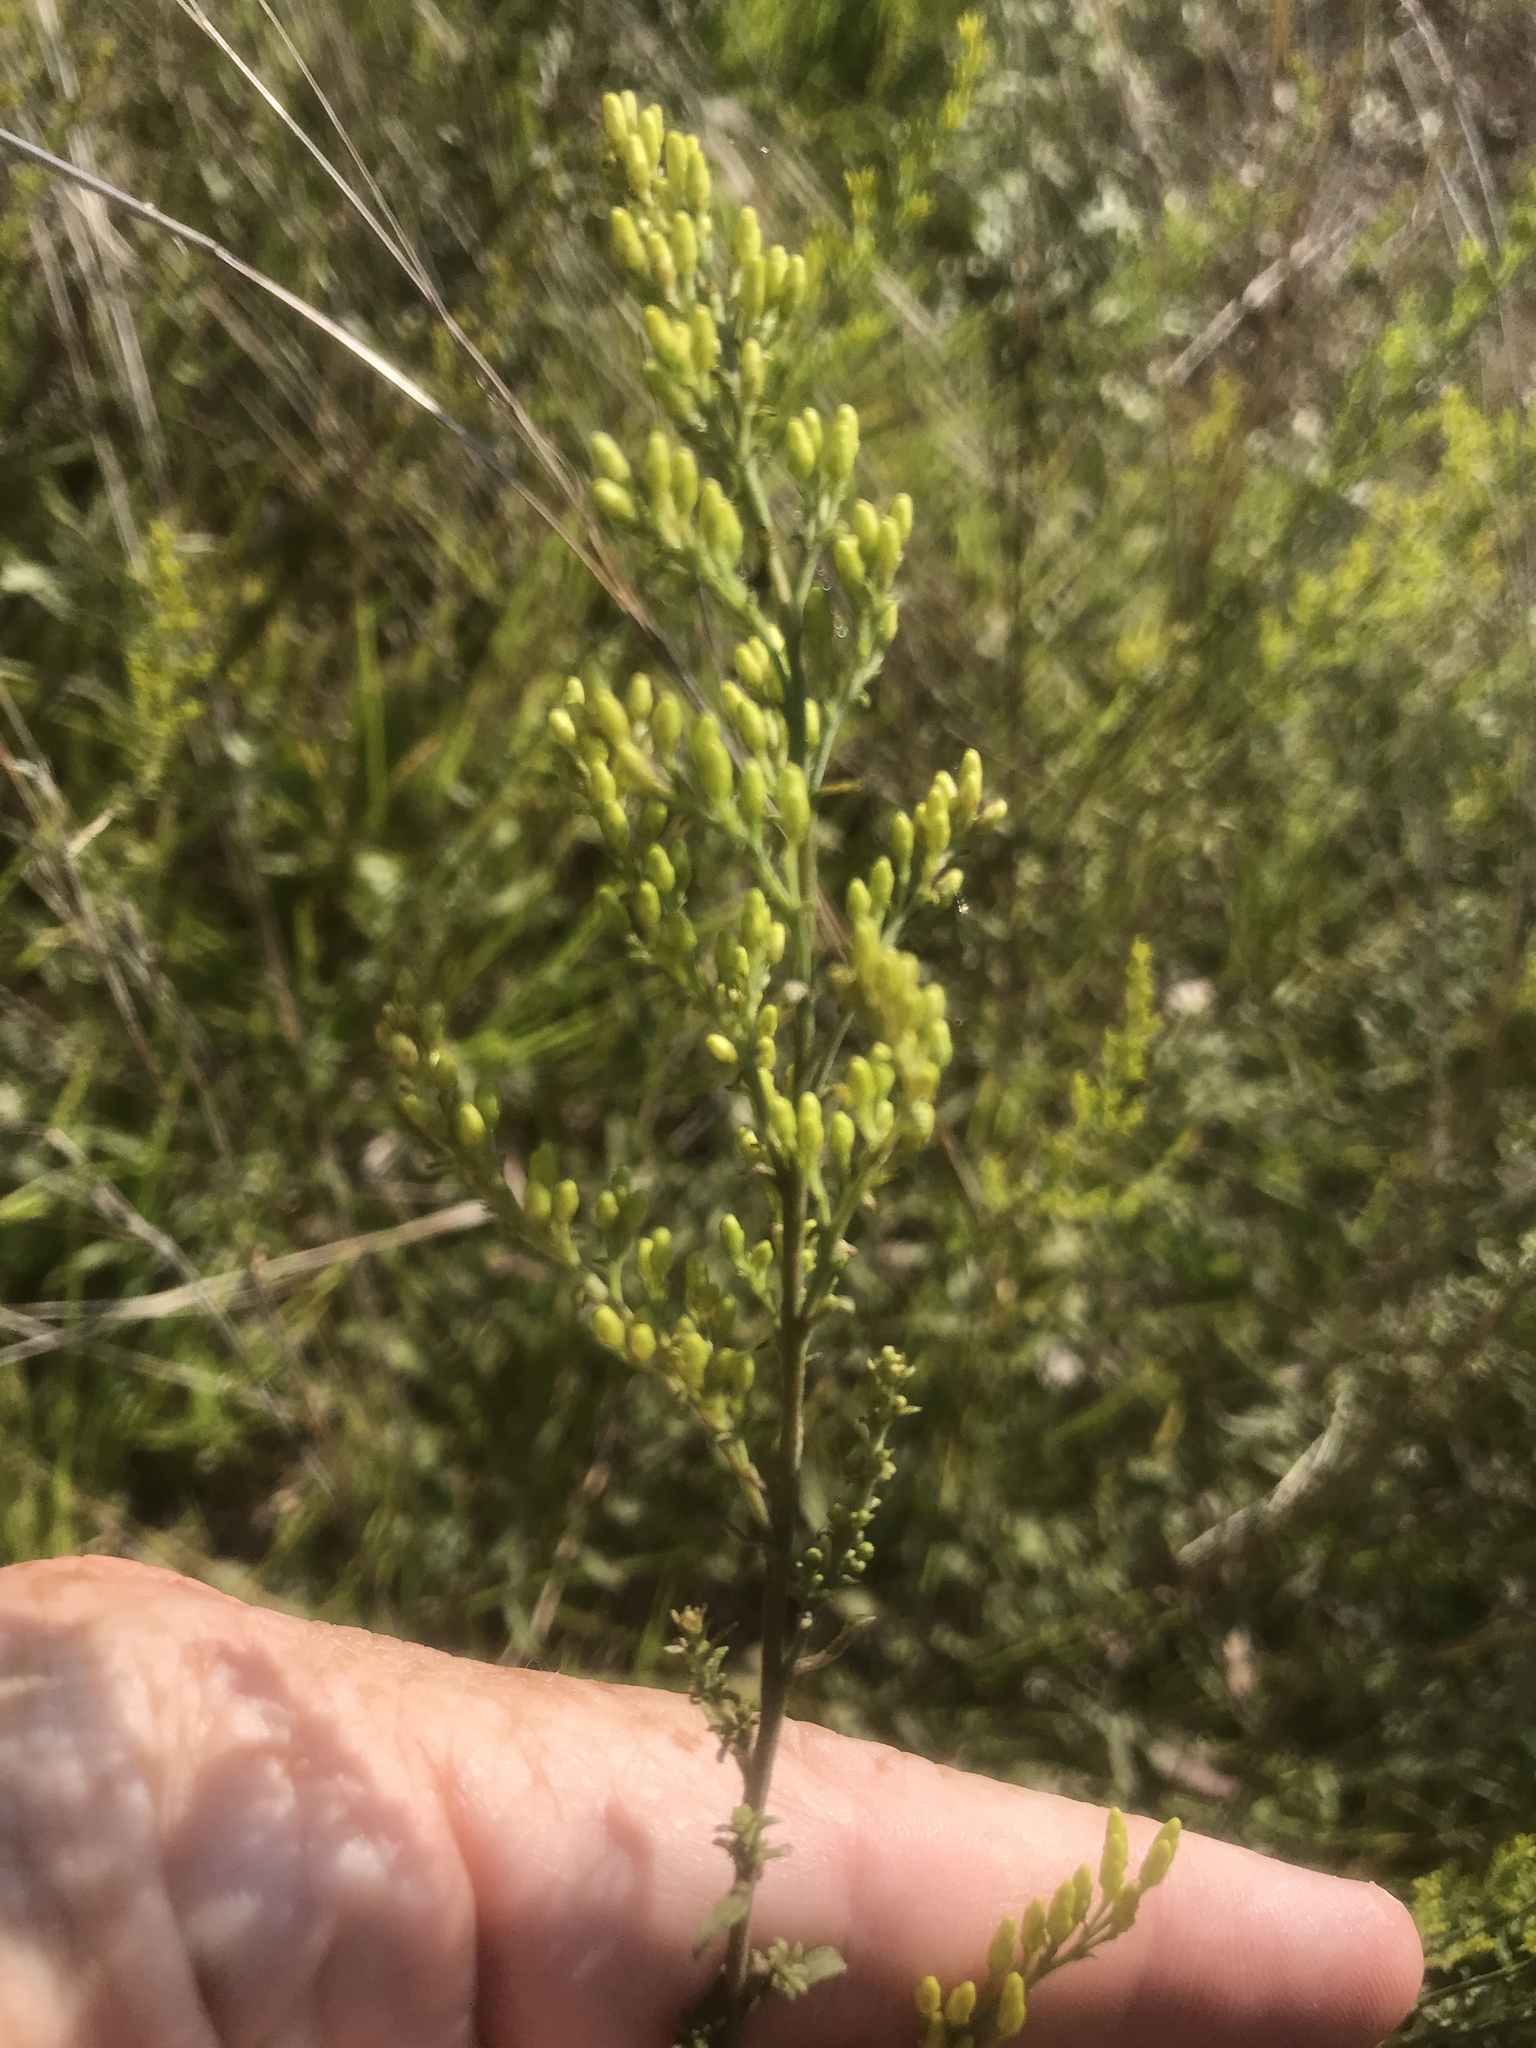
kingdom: Plantae
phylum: Tracheophyta
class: Magnoliopsida
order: Asterales
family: Asteraceae
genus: Solidago
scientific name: Solidago nemoralis
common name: Grey goldenrod
